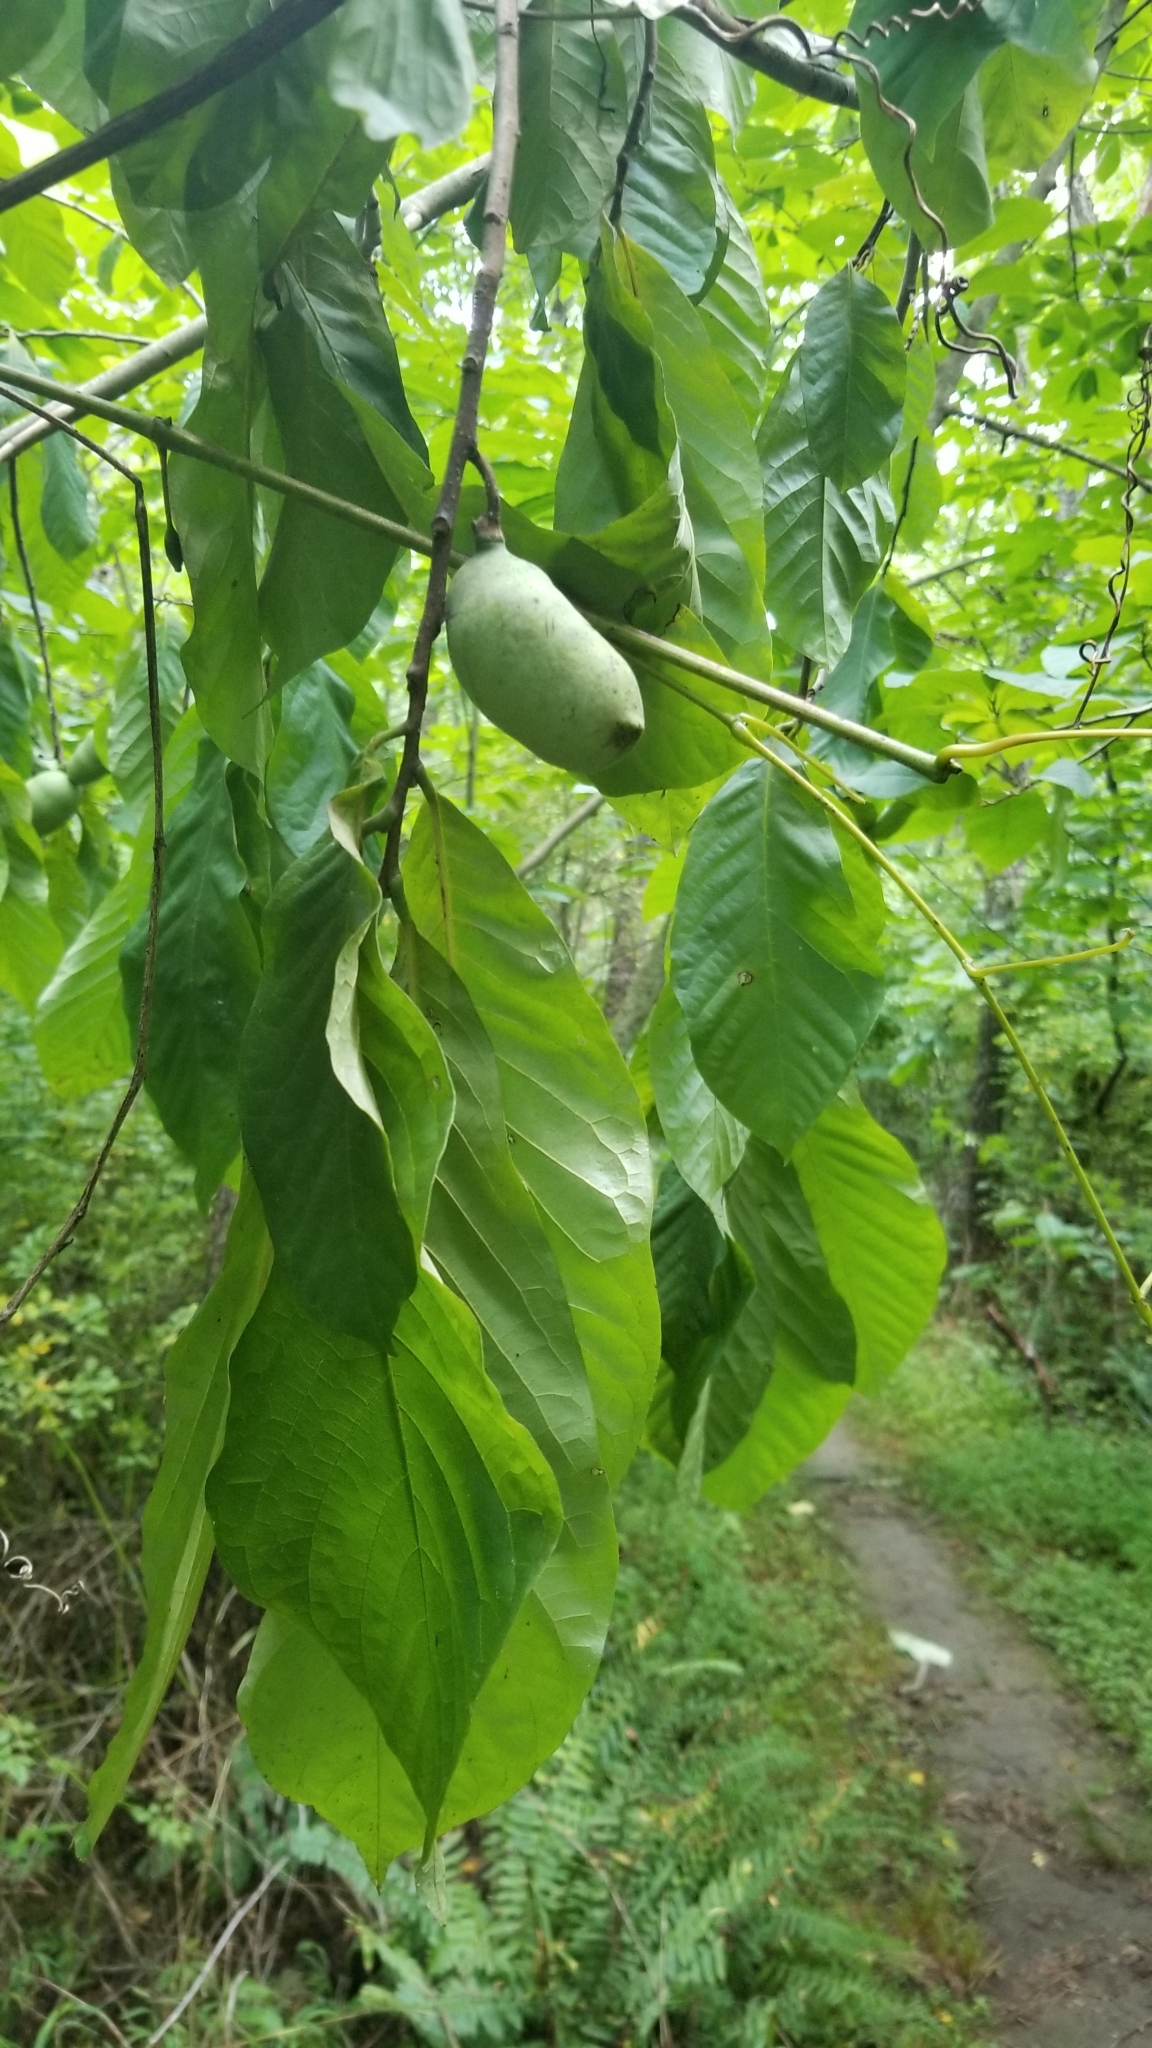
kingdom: Plantae
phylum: Tracheophyta
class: Magnoliopsida
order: Magnoliales
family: Annonaceae
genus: Asimina
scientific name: Asimina triloba
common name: Dog-banana
